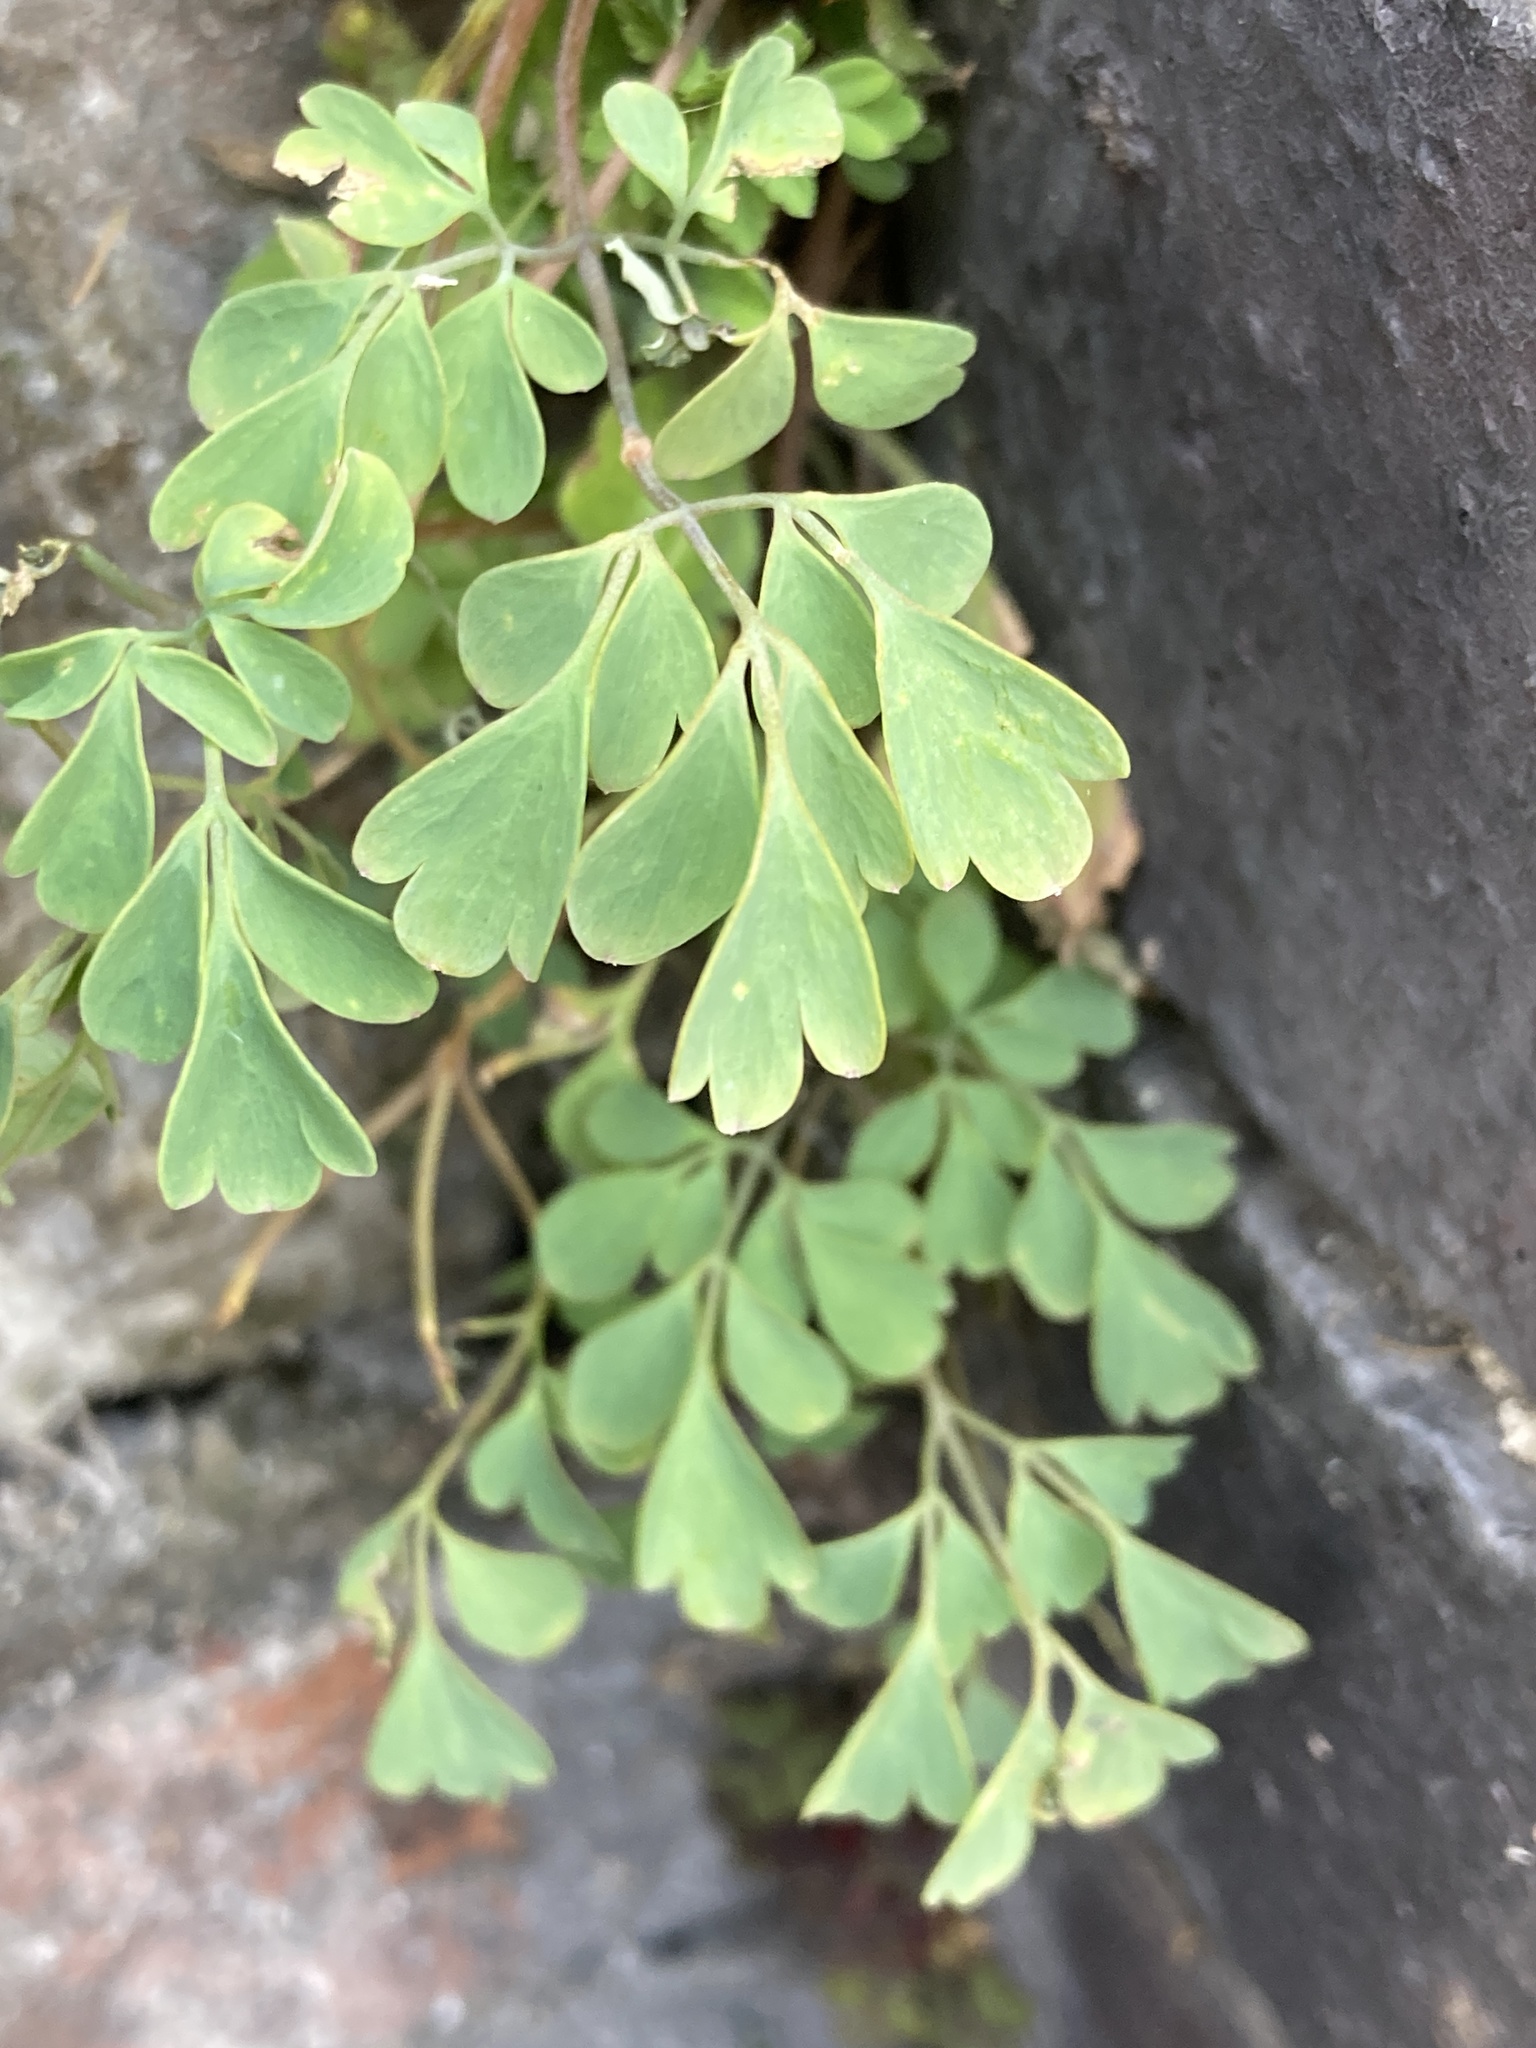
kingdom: Plantae
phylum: Tracheophyta
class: Magnoliopsida
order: Ranunculales
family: Papaveraceae
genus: Pseudofumaria
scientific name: Pseudofumaria lutea
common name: Yellow corydalis
